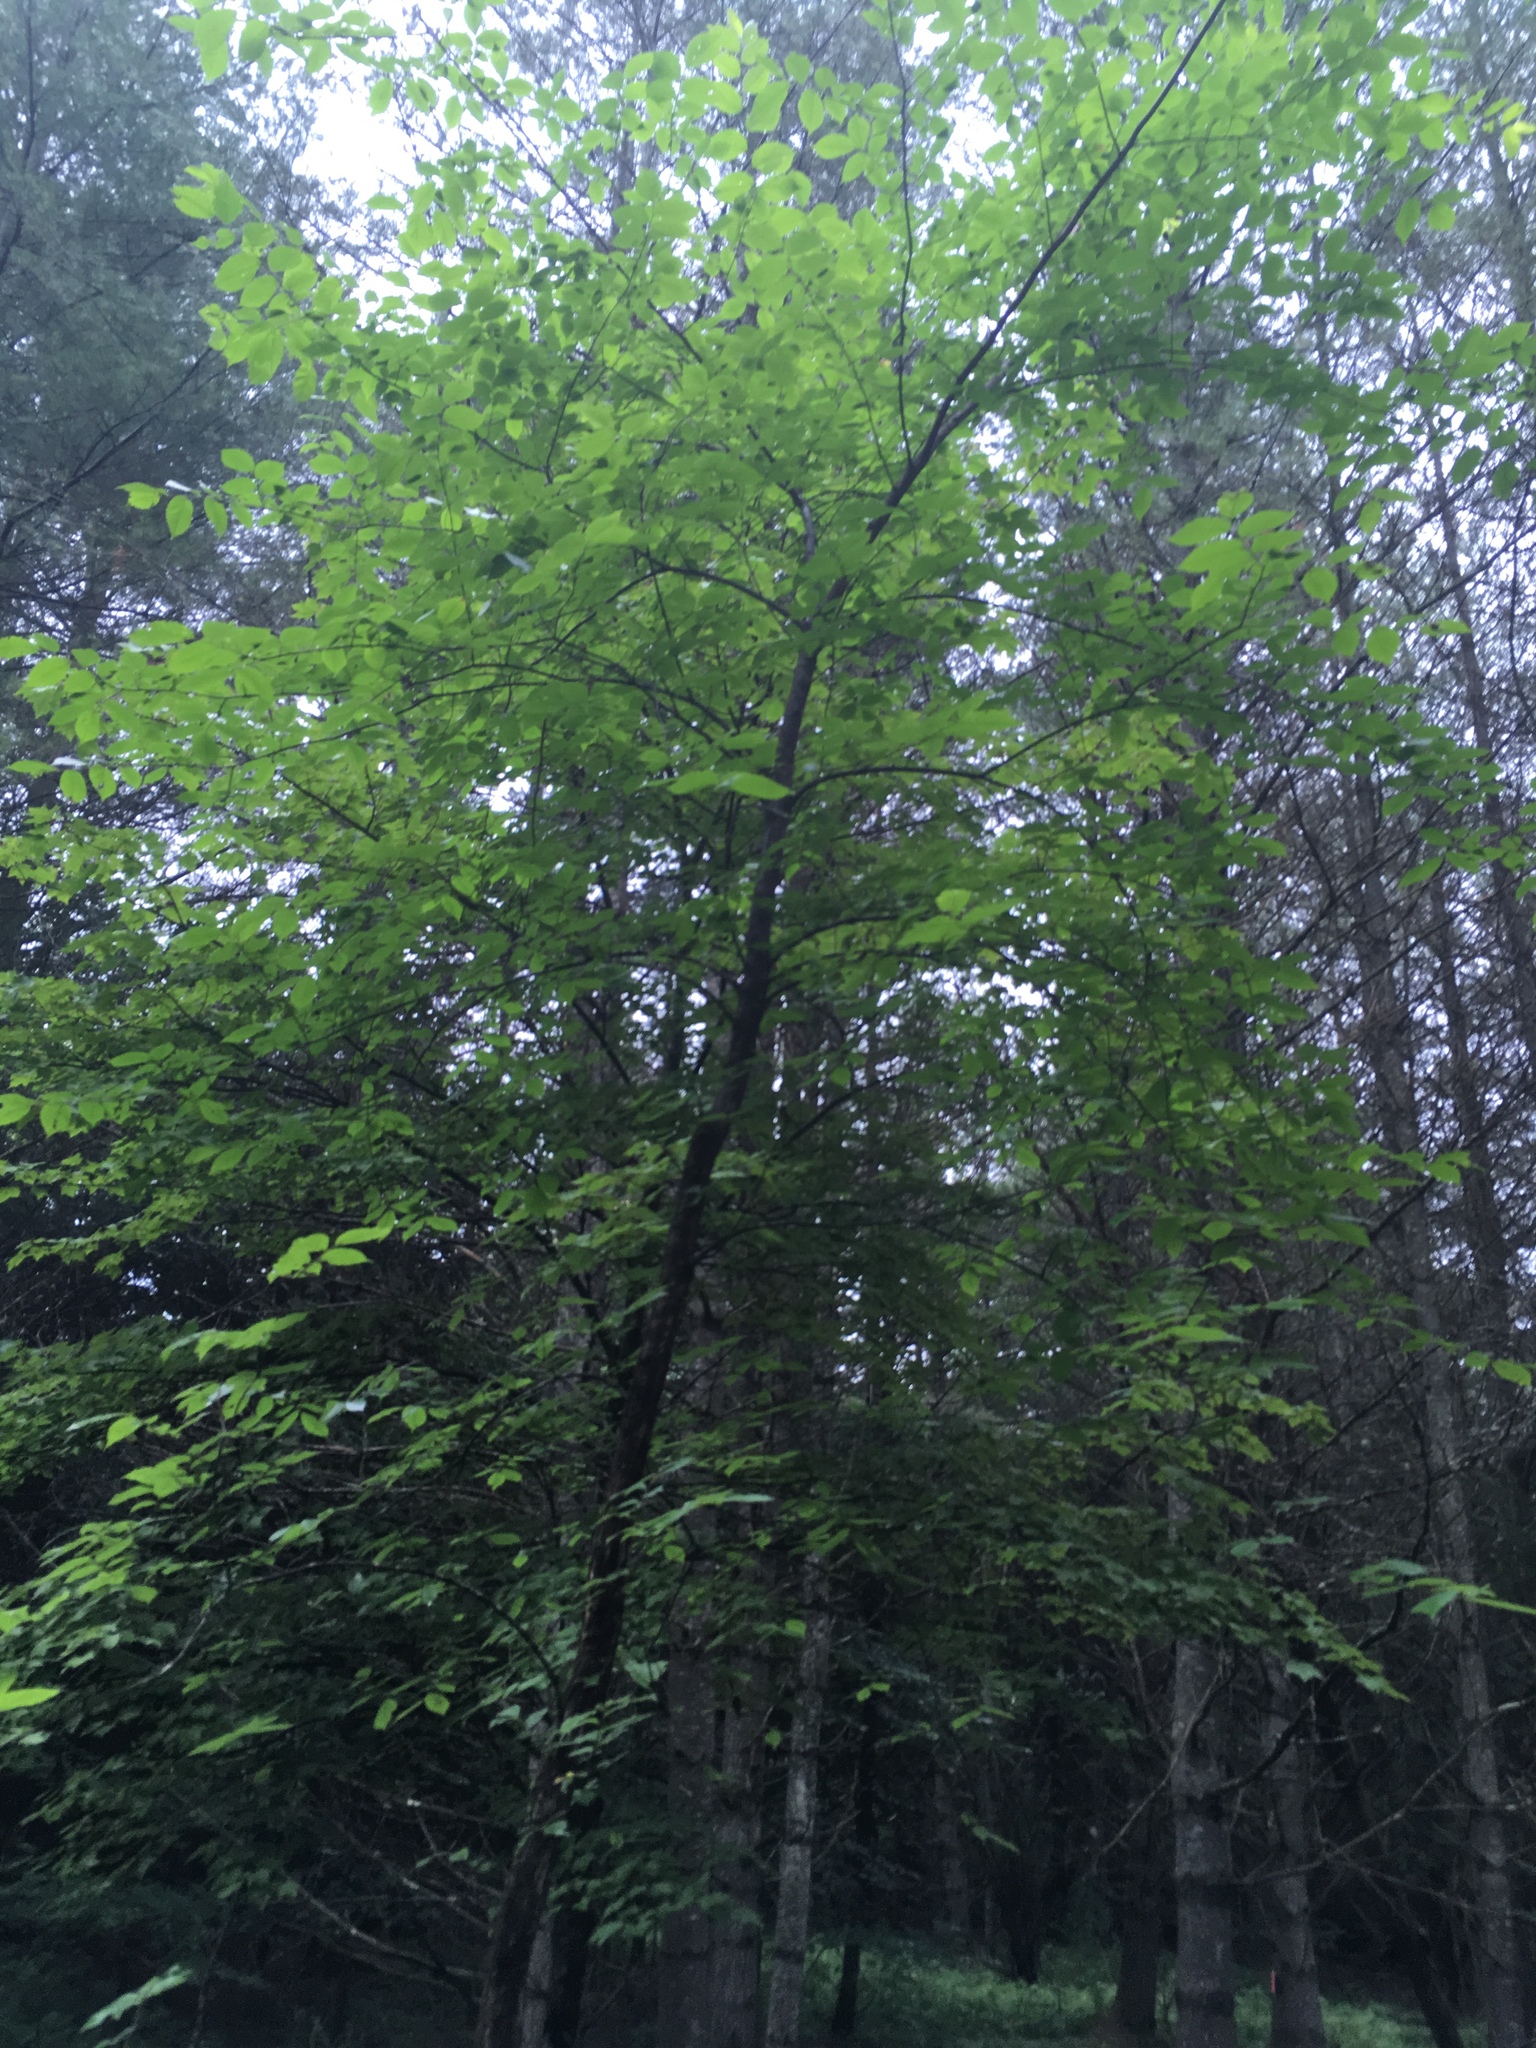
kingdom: Plantae
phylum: Tracheophyta
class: Magnoliopsida
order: Rosales
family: Ulmaceae
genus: Ulmus
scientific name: Ulmus americana
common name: American elm
